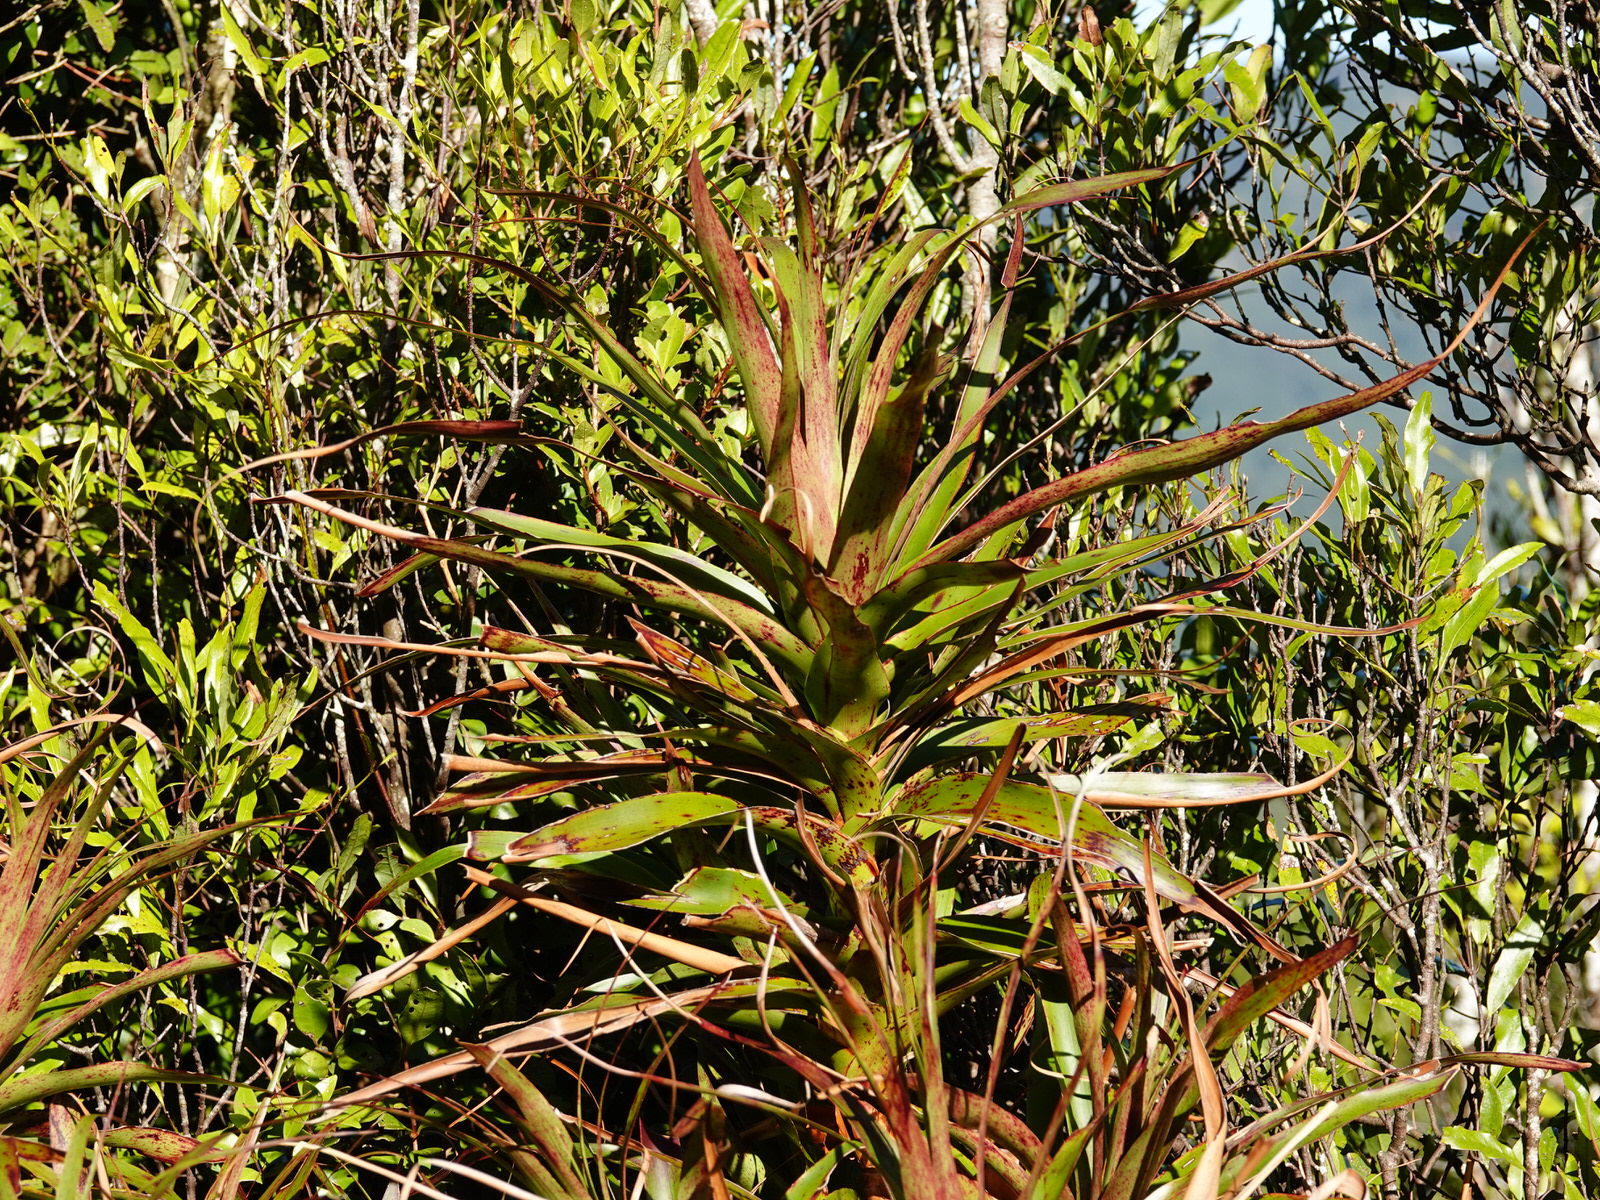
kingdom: Plantae
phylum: Tracheophyta
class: Magnoliopsida
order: Ericales
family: Ericaceae
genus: Dracophyllum
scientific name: Dracophyllum latifolium
